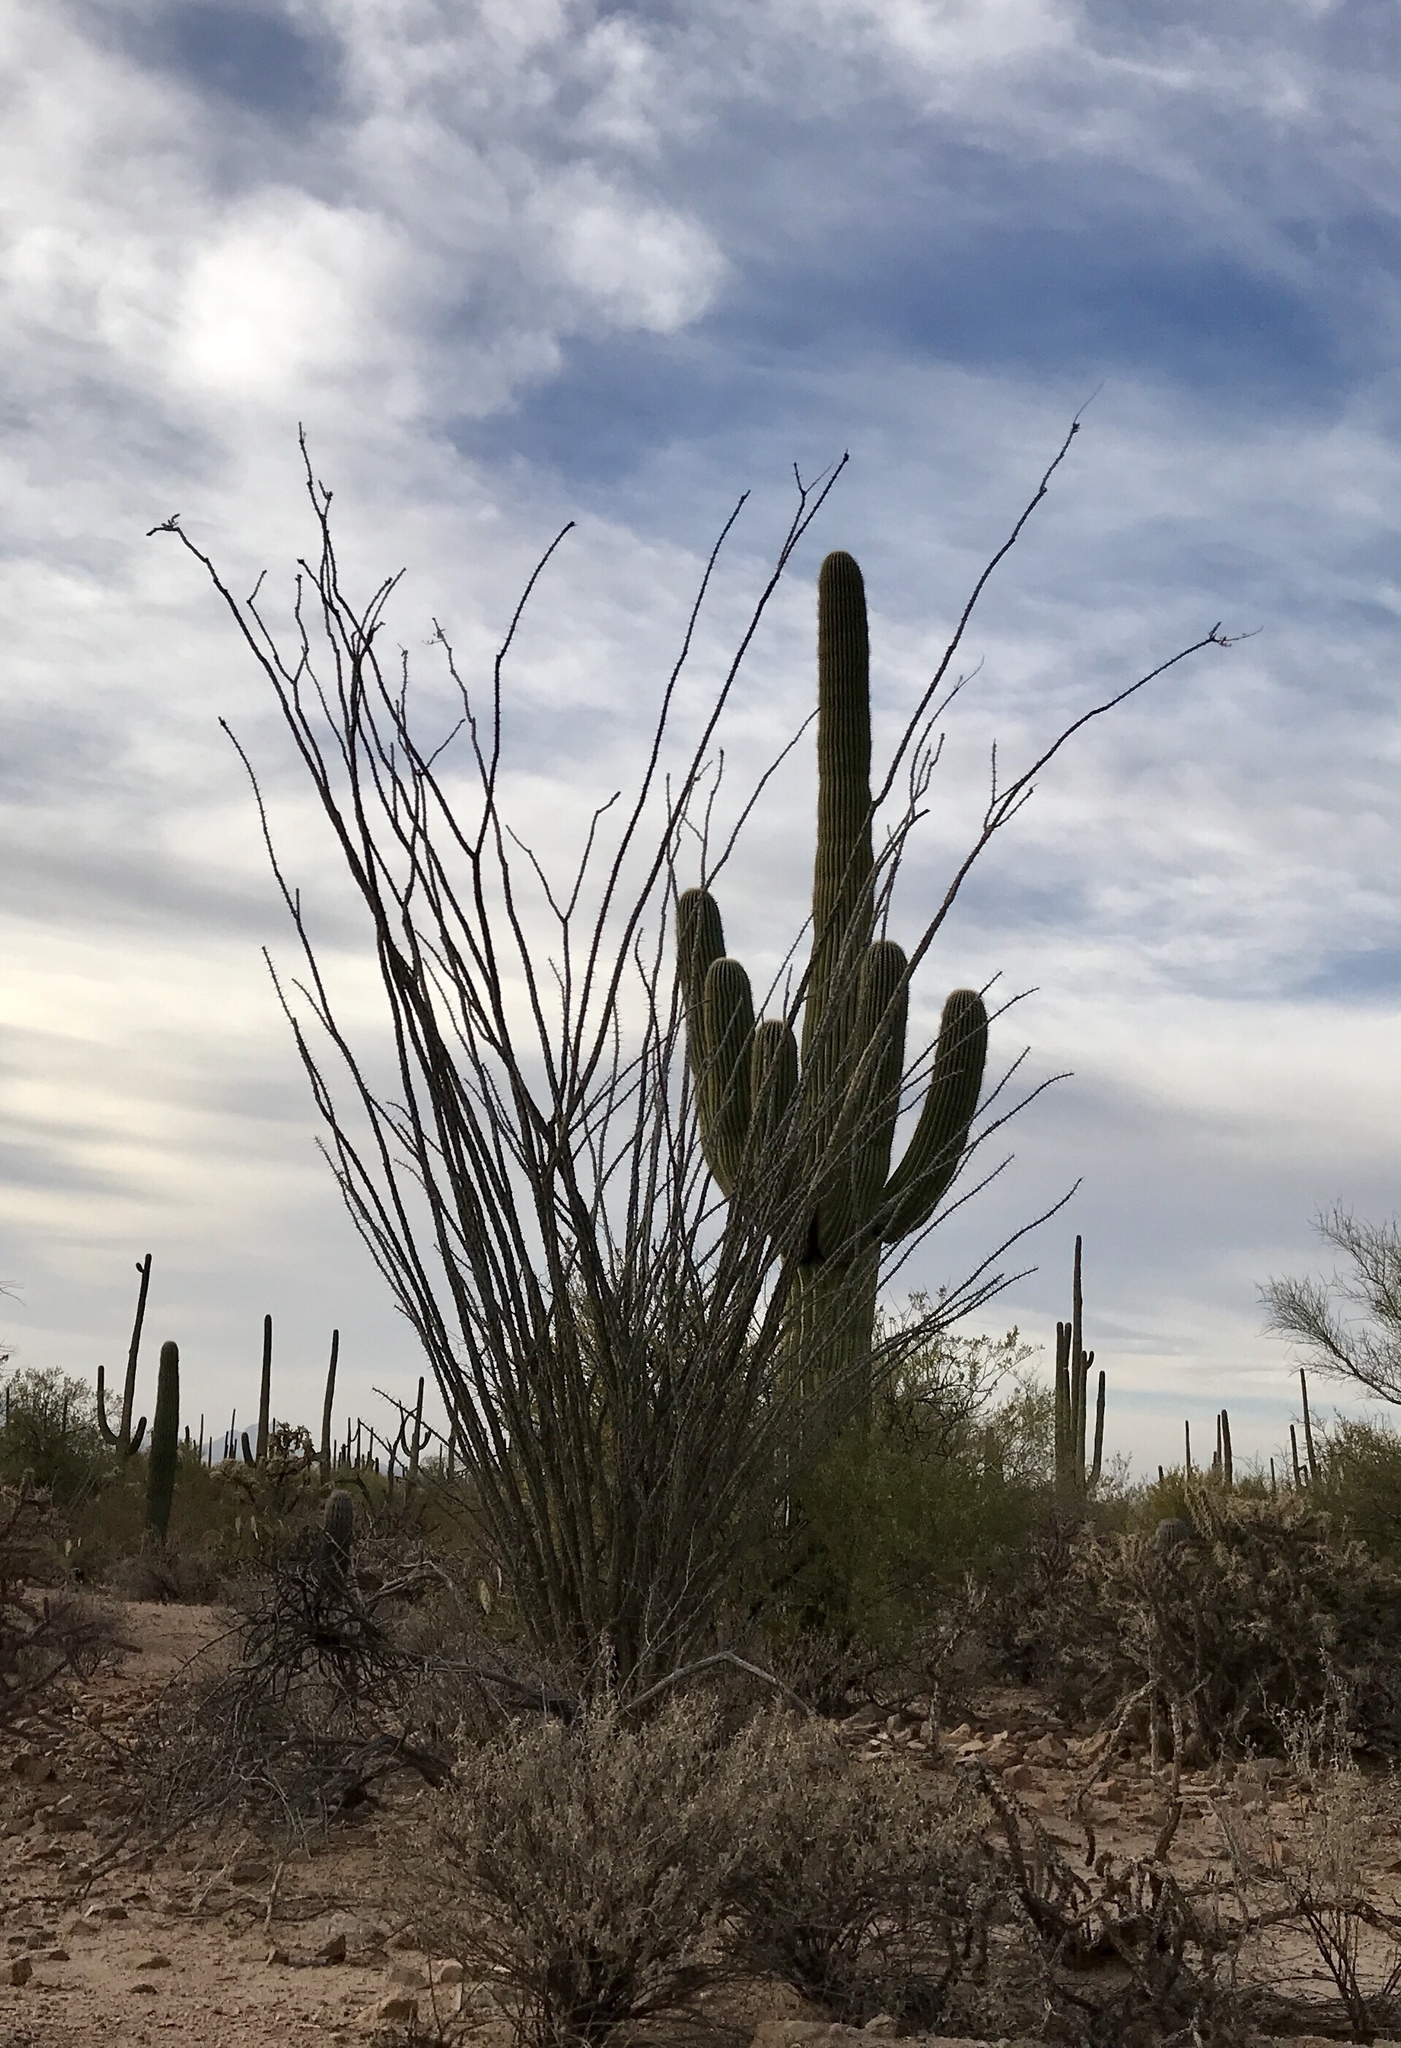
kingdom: Plantae
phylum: Tracheophyta
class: Magnoliopsida
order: Ericales
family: Fouquieriaceae
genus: Fouquieria
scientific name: Fouquieria splendens
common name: Vine-cactus
